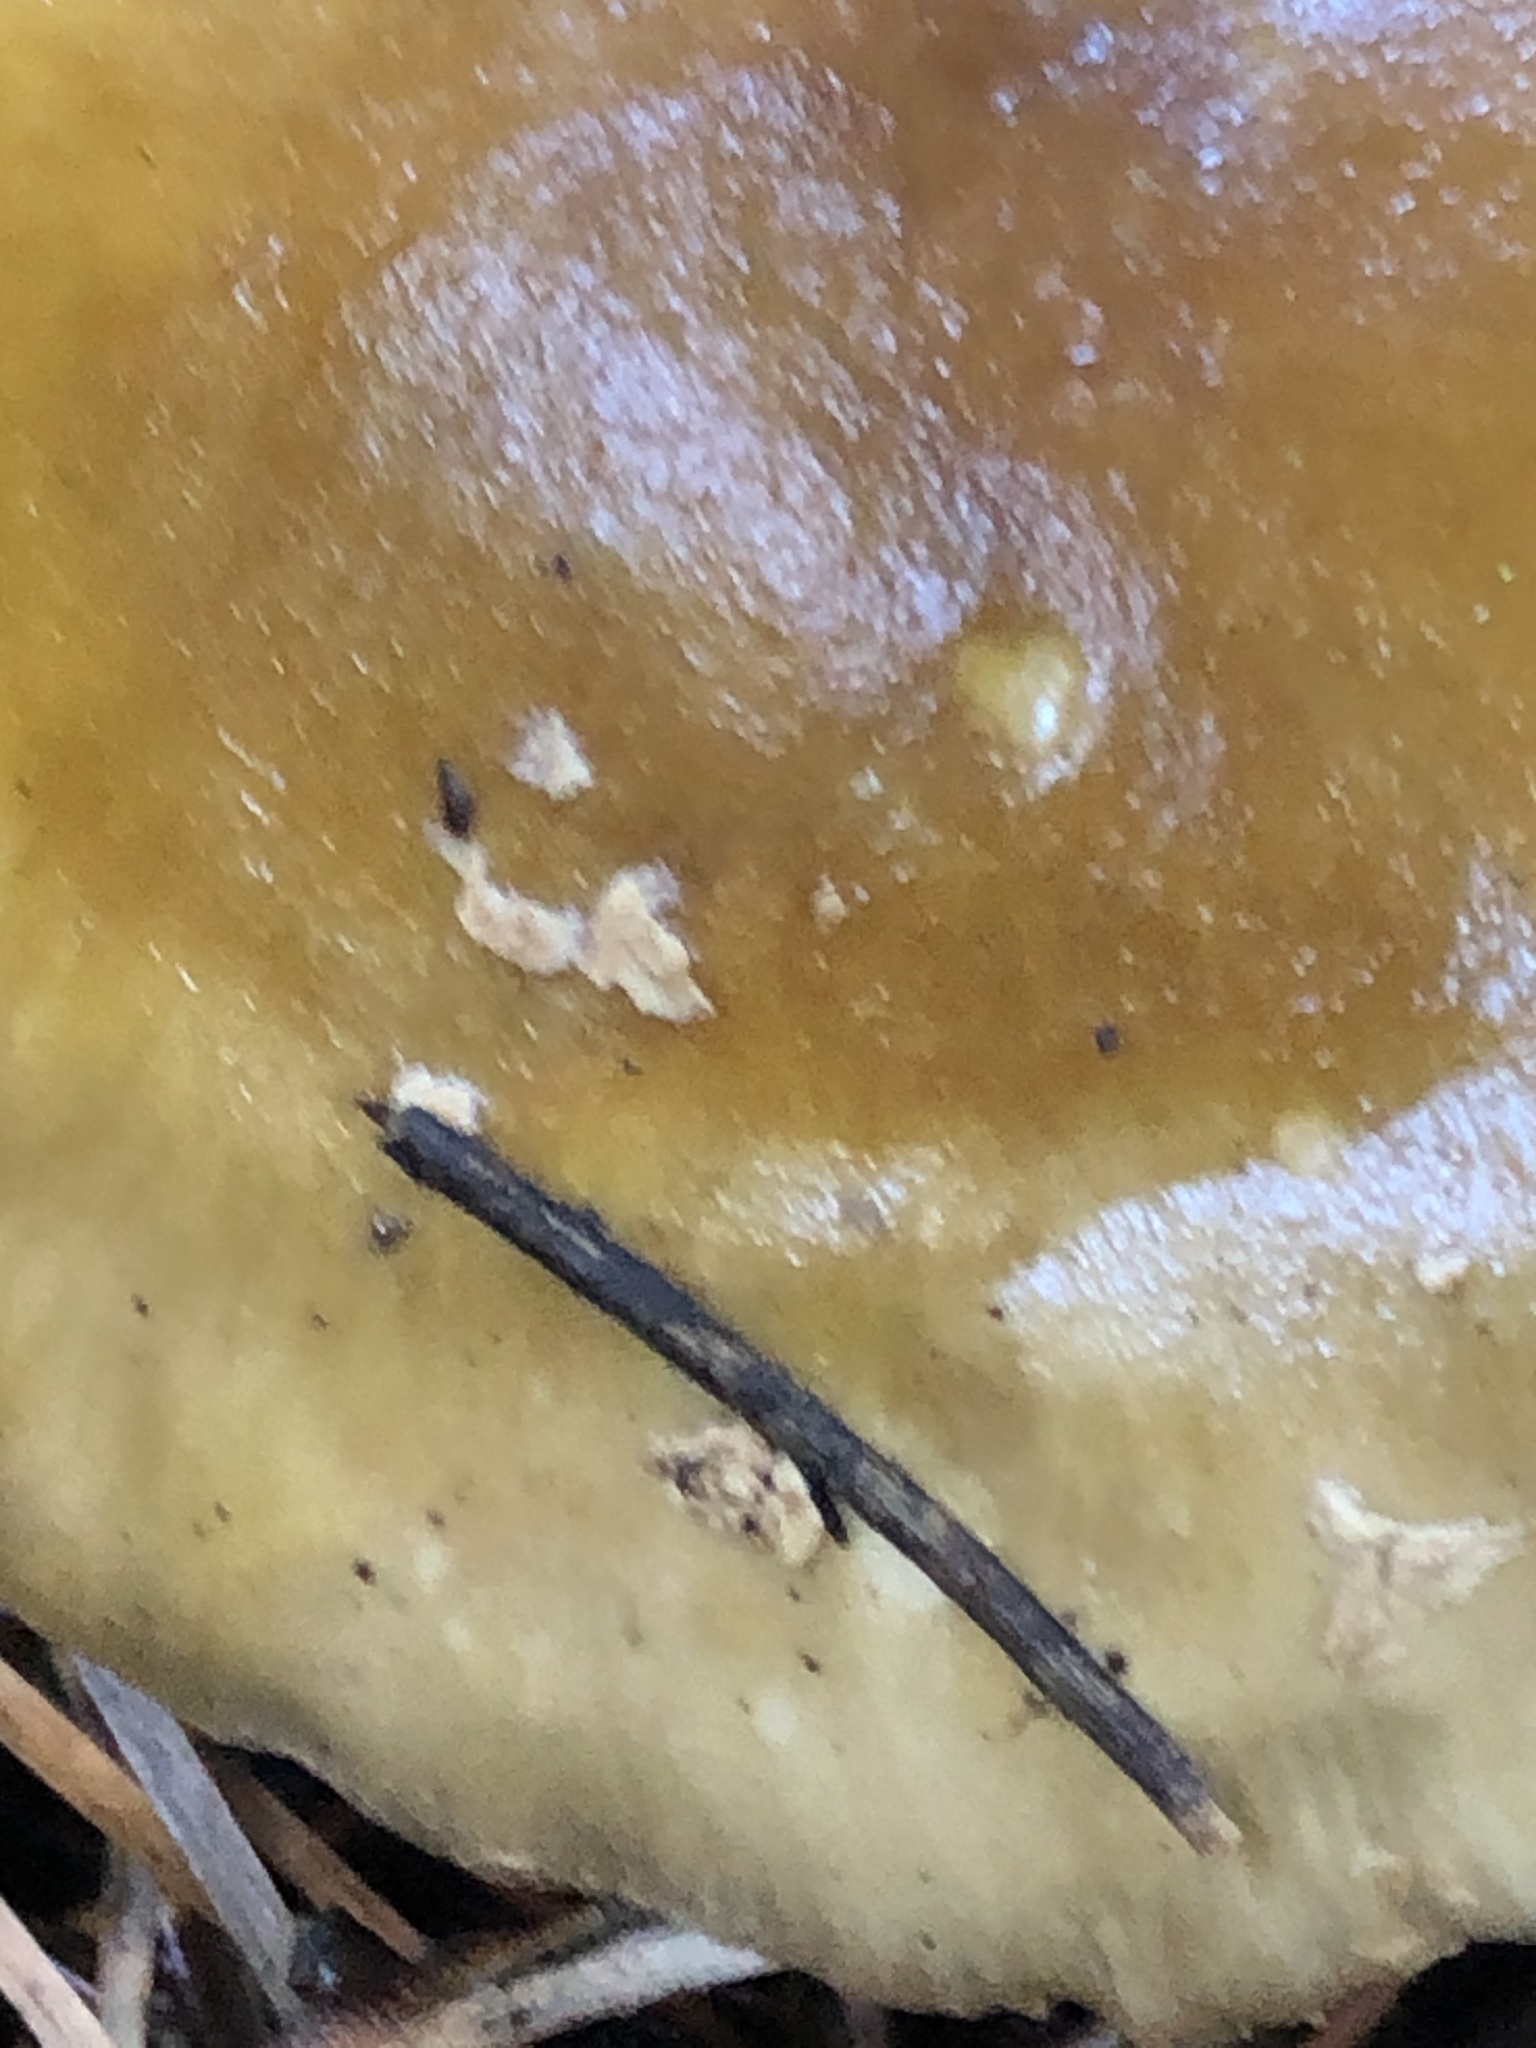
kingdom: Fungi
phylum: Basidiomycota
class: Agaricomycetes
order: Agaricales
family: Amanitaceae
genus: Amanita
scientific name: Amanita augusta
